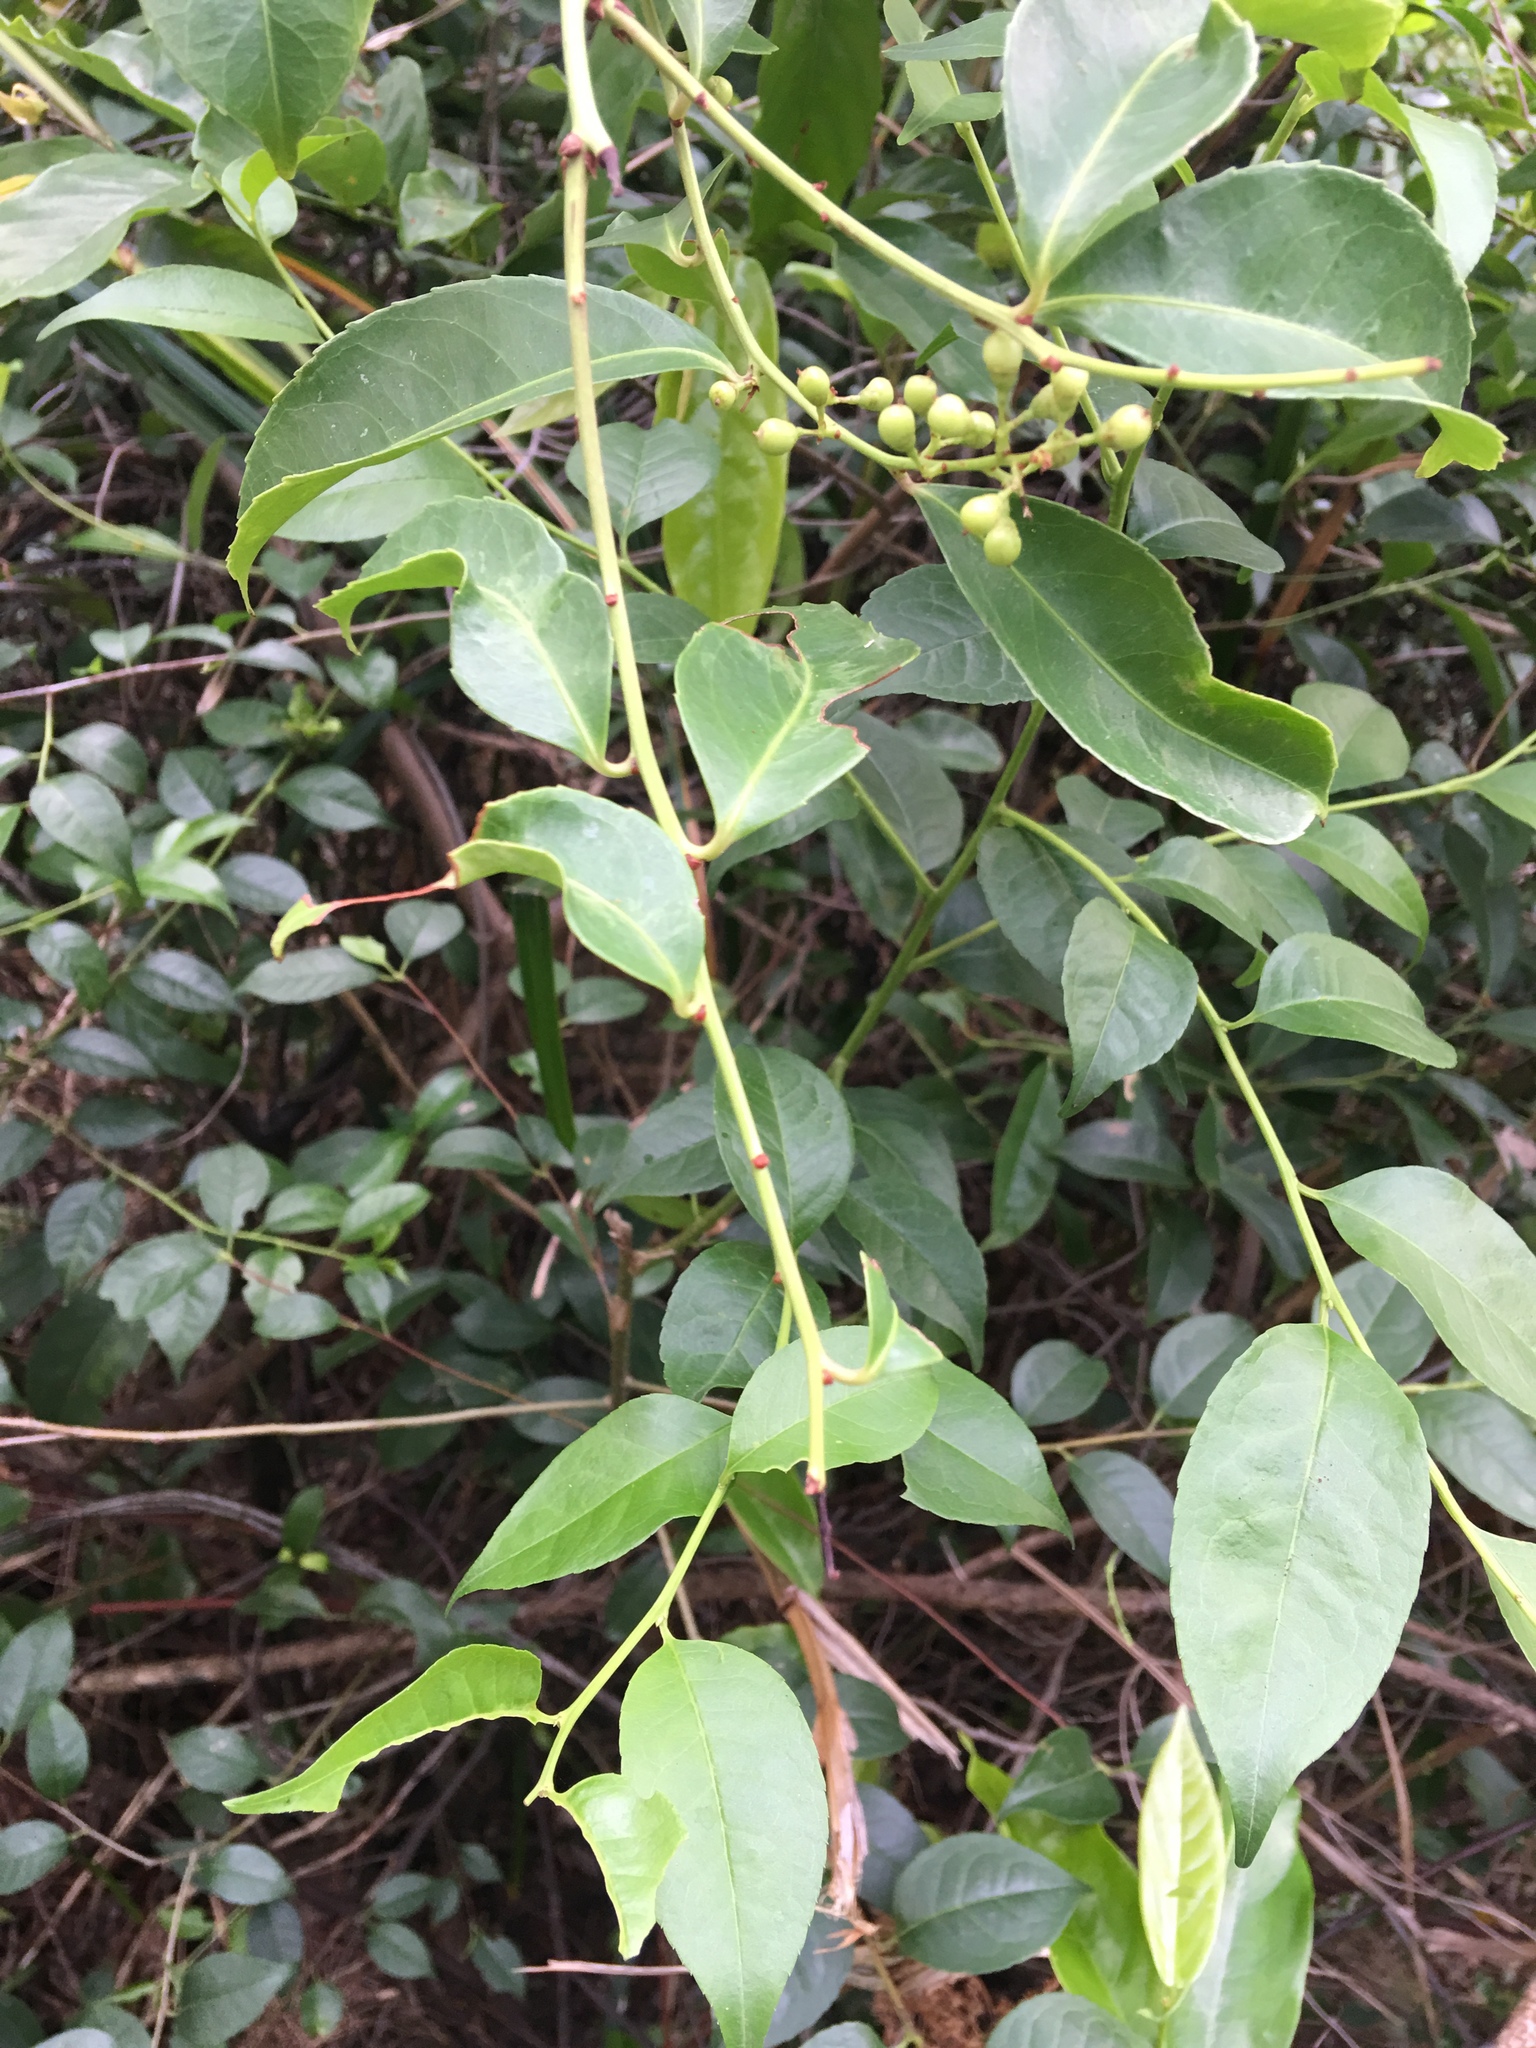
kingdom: Plantae
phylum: Tracheophyta
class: Magnoliopsida
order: Celastrales
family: Celastraceae
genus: Celastrus
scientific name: Celastrus hindsii
